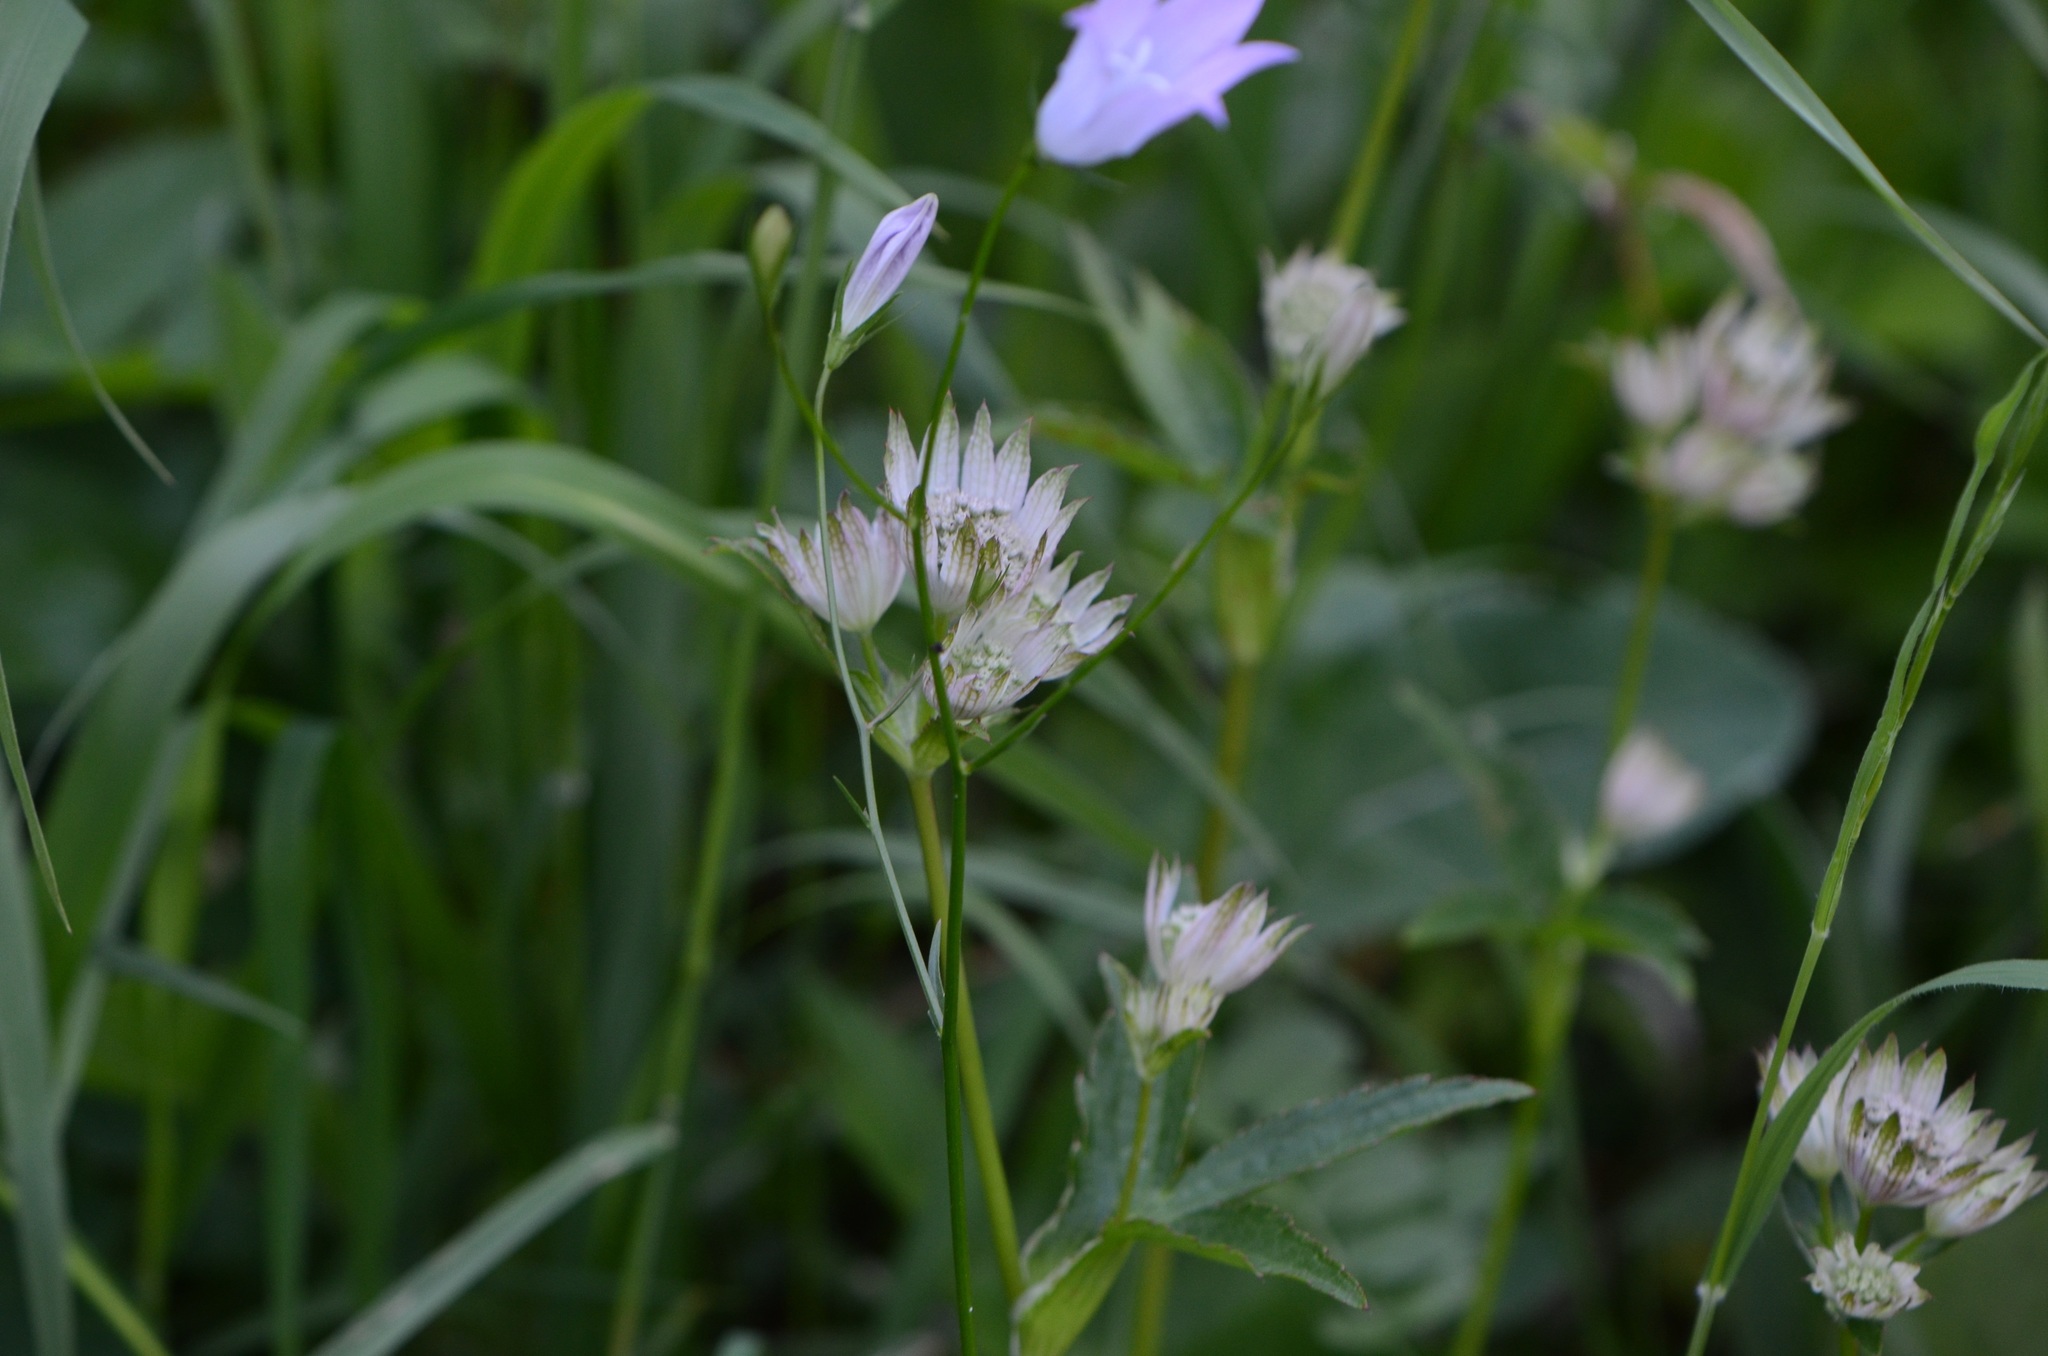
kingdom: Plantae
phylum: Tracheophyta
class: Magnoliopsida
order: Apiales
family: Apiaceae
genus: Astrantia
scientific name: Astrantia major
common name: Greater masterwort
